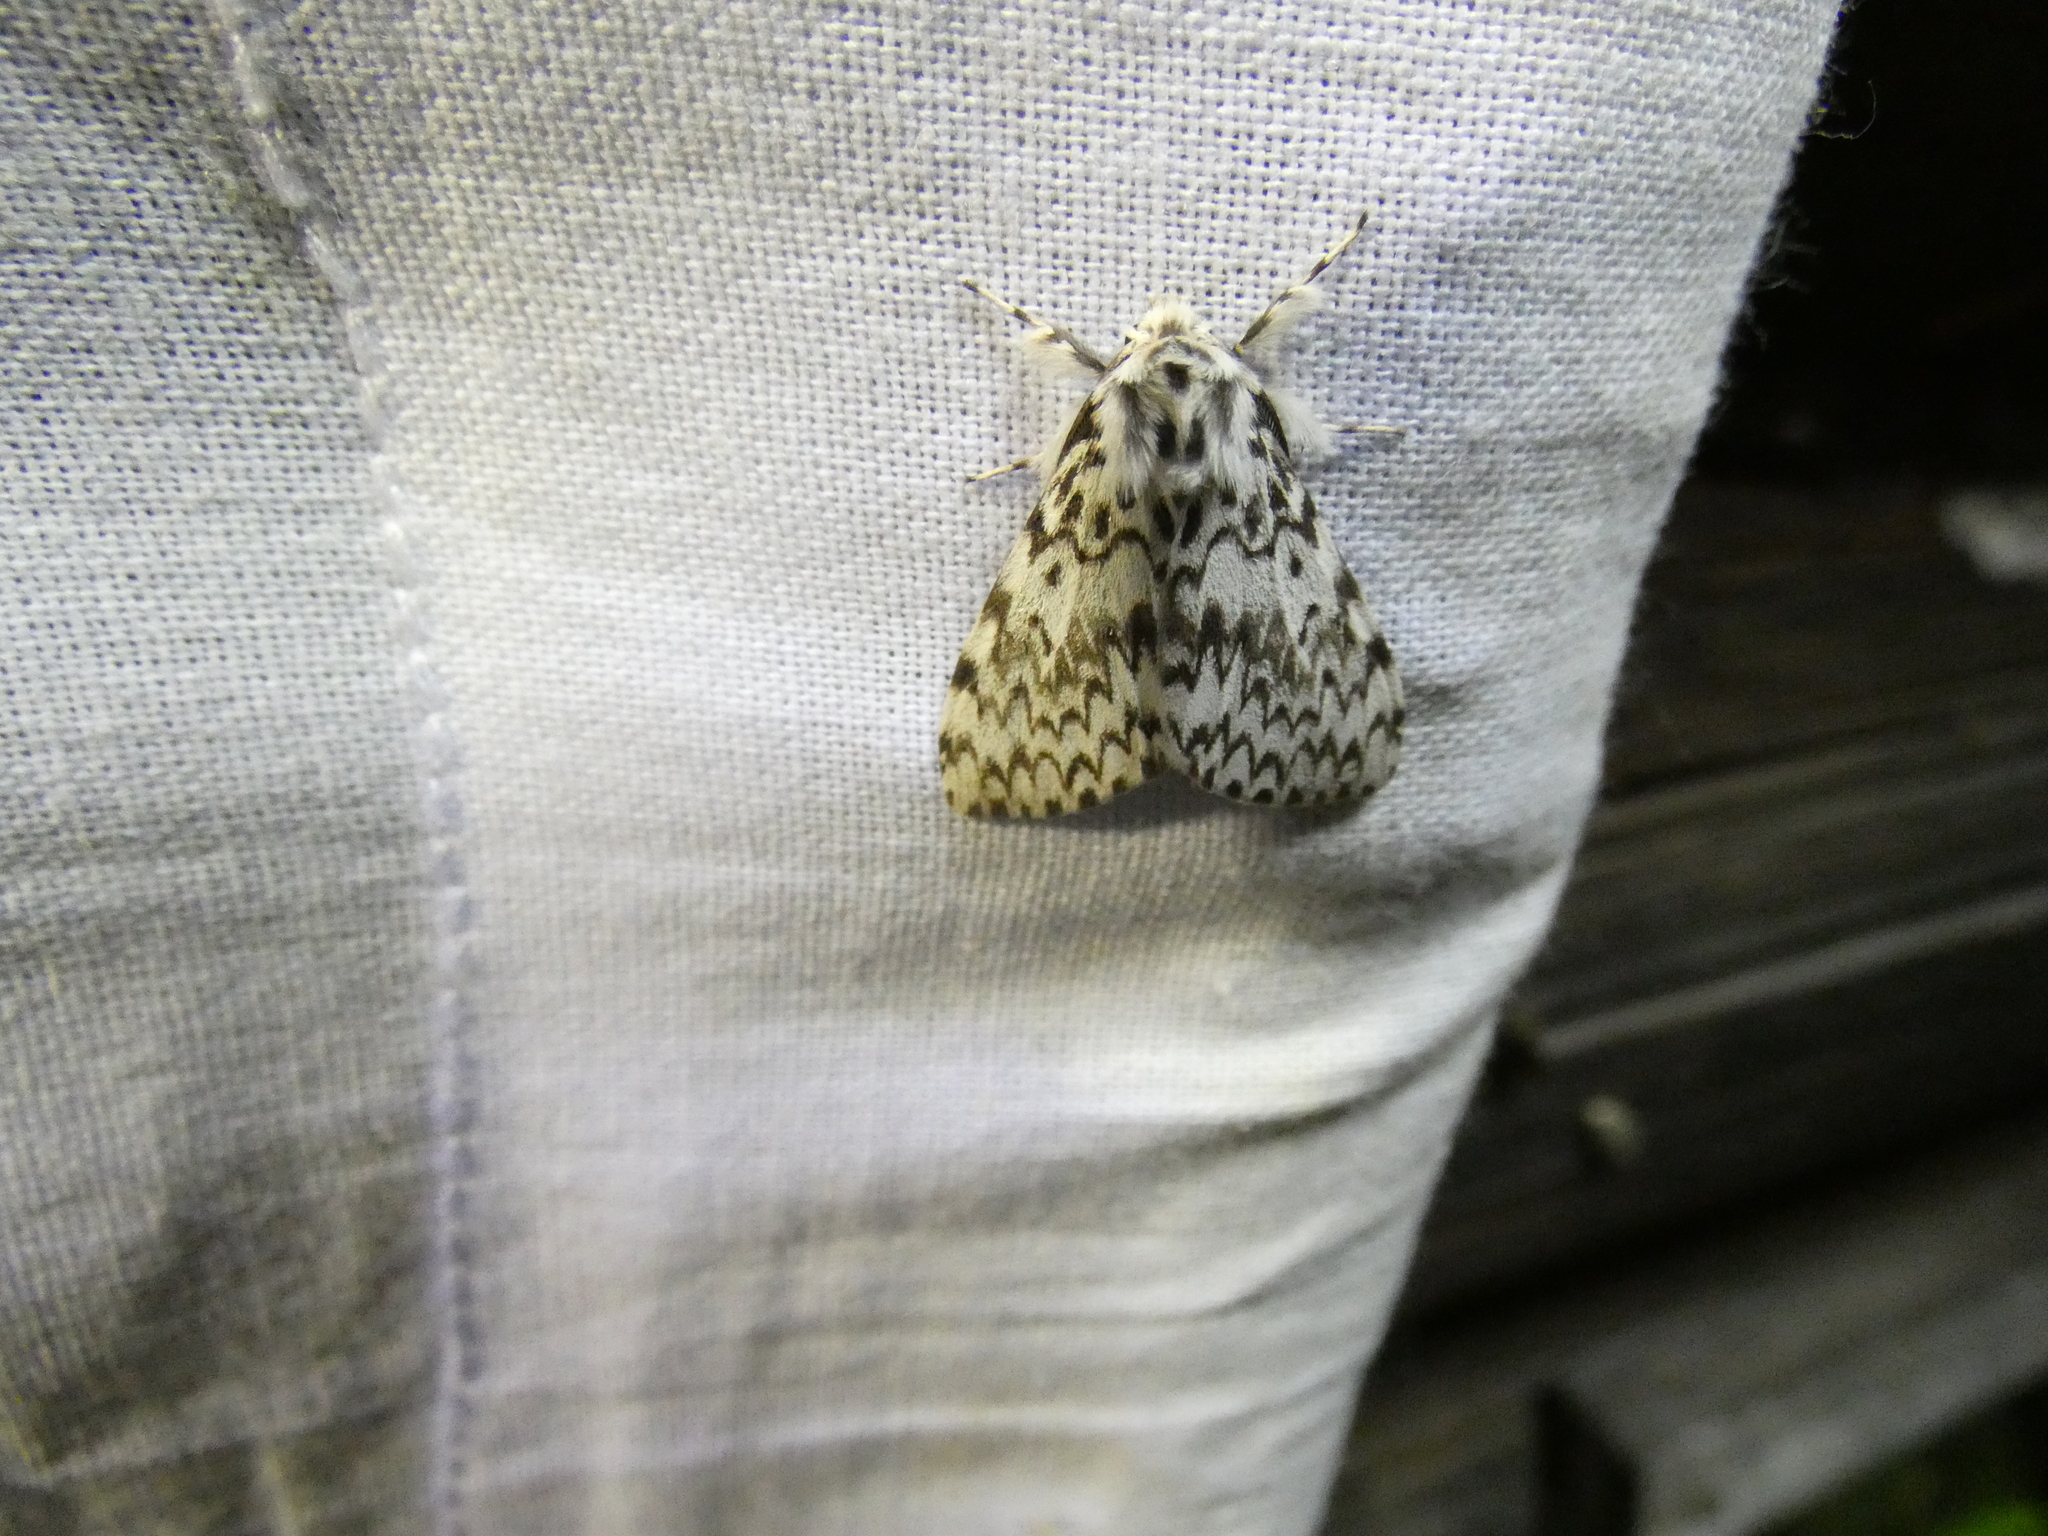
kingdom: Animalia
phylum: Arthropoda
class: Insecta
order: Lepidoptera
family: Erebidae
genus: Lymantria
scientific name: Lymantria monacha
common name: Black arches
